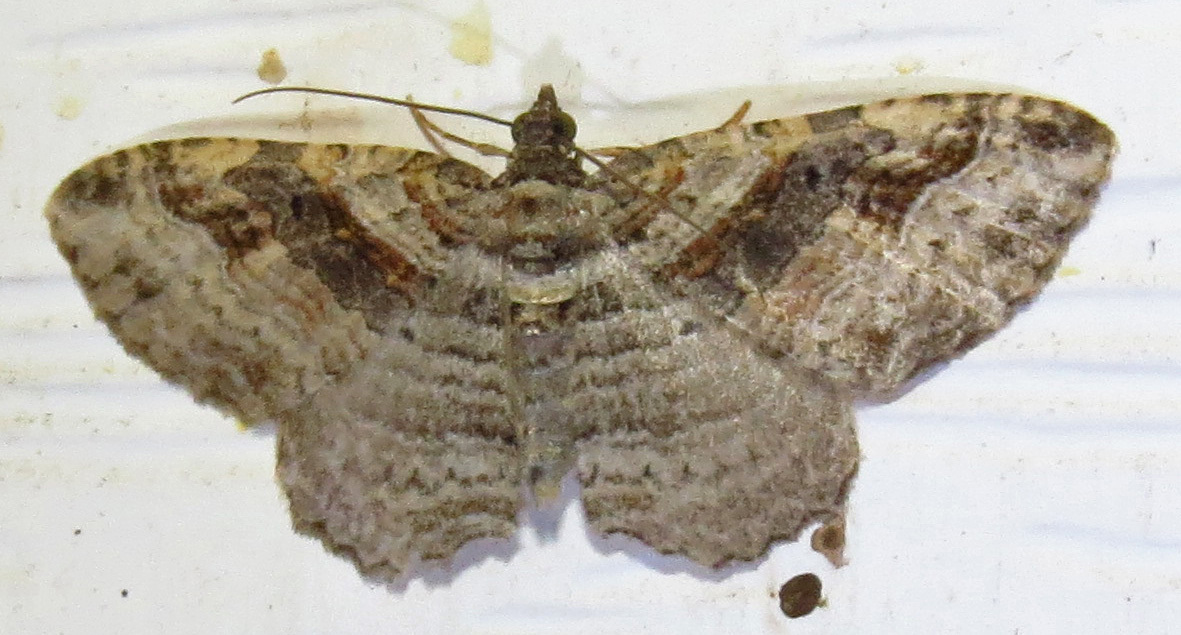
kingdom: Animalia
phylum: Arthropoda
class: Insecta
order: Lepidoptera
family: Geometridae
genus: Costaconvexa
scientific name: Costaconvexa centrostrigaria
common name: Bent-line carpet
